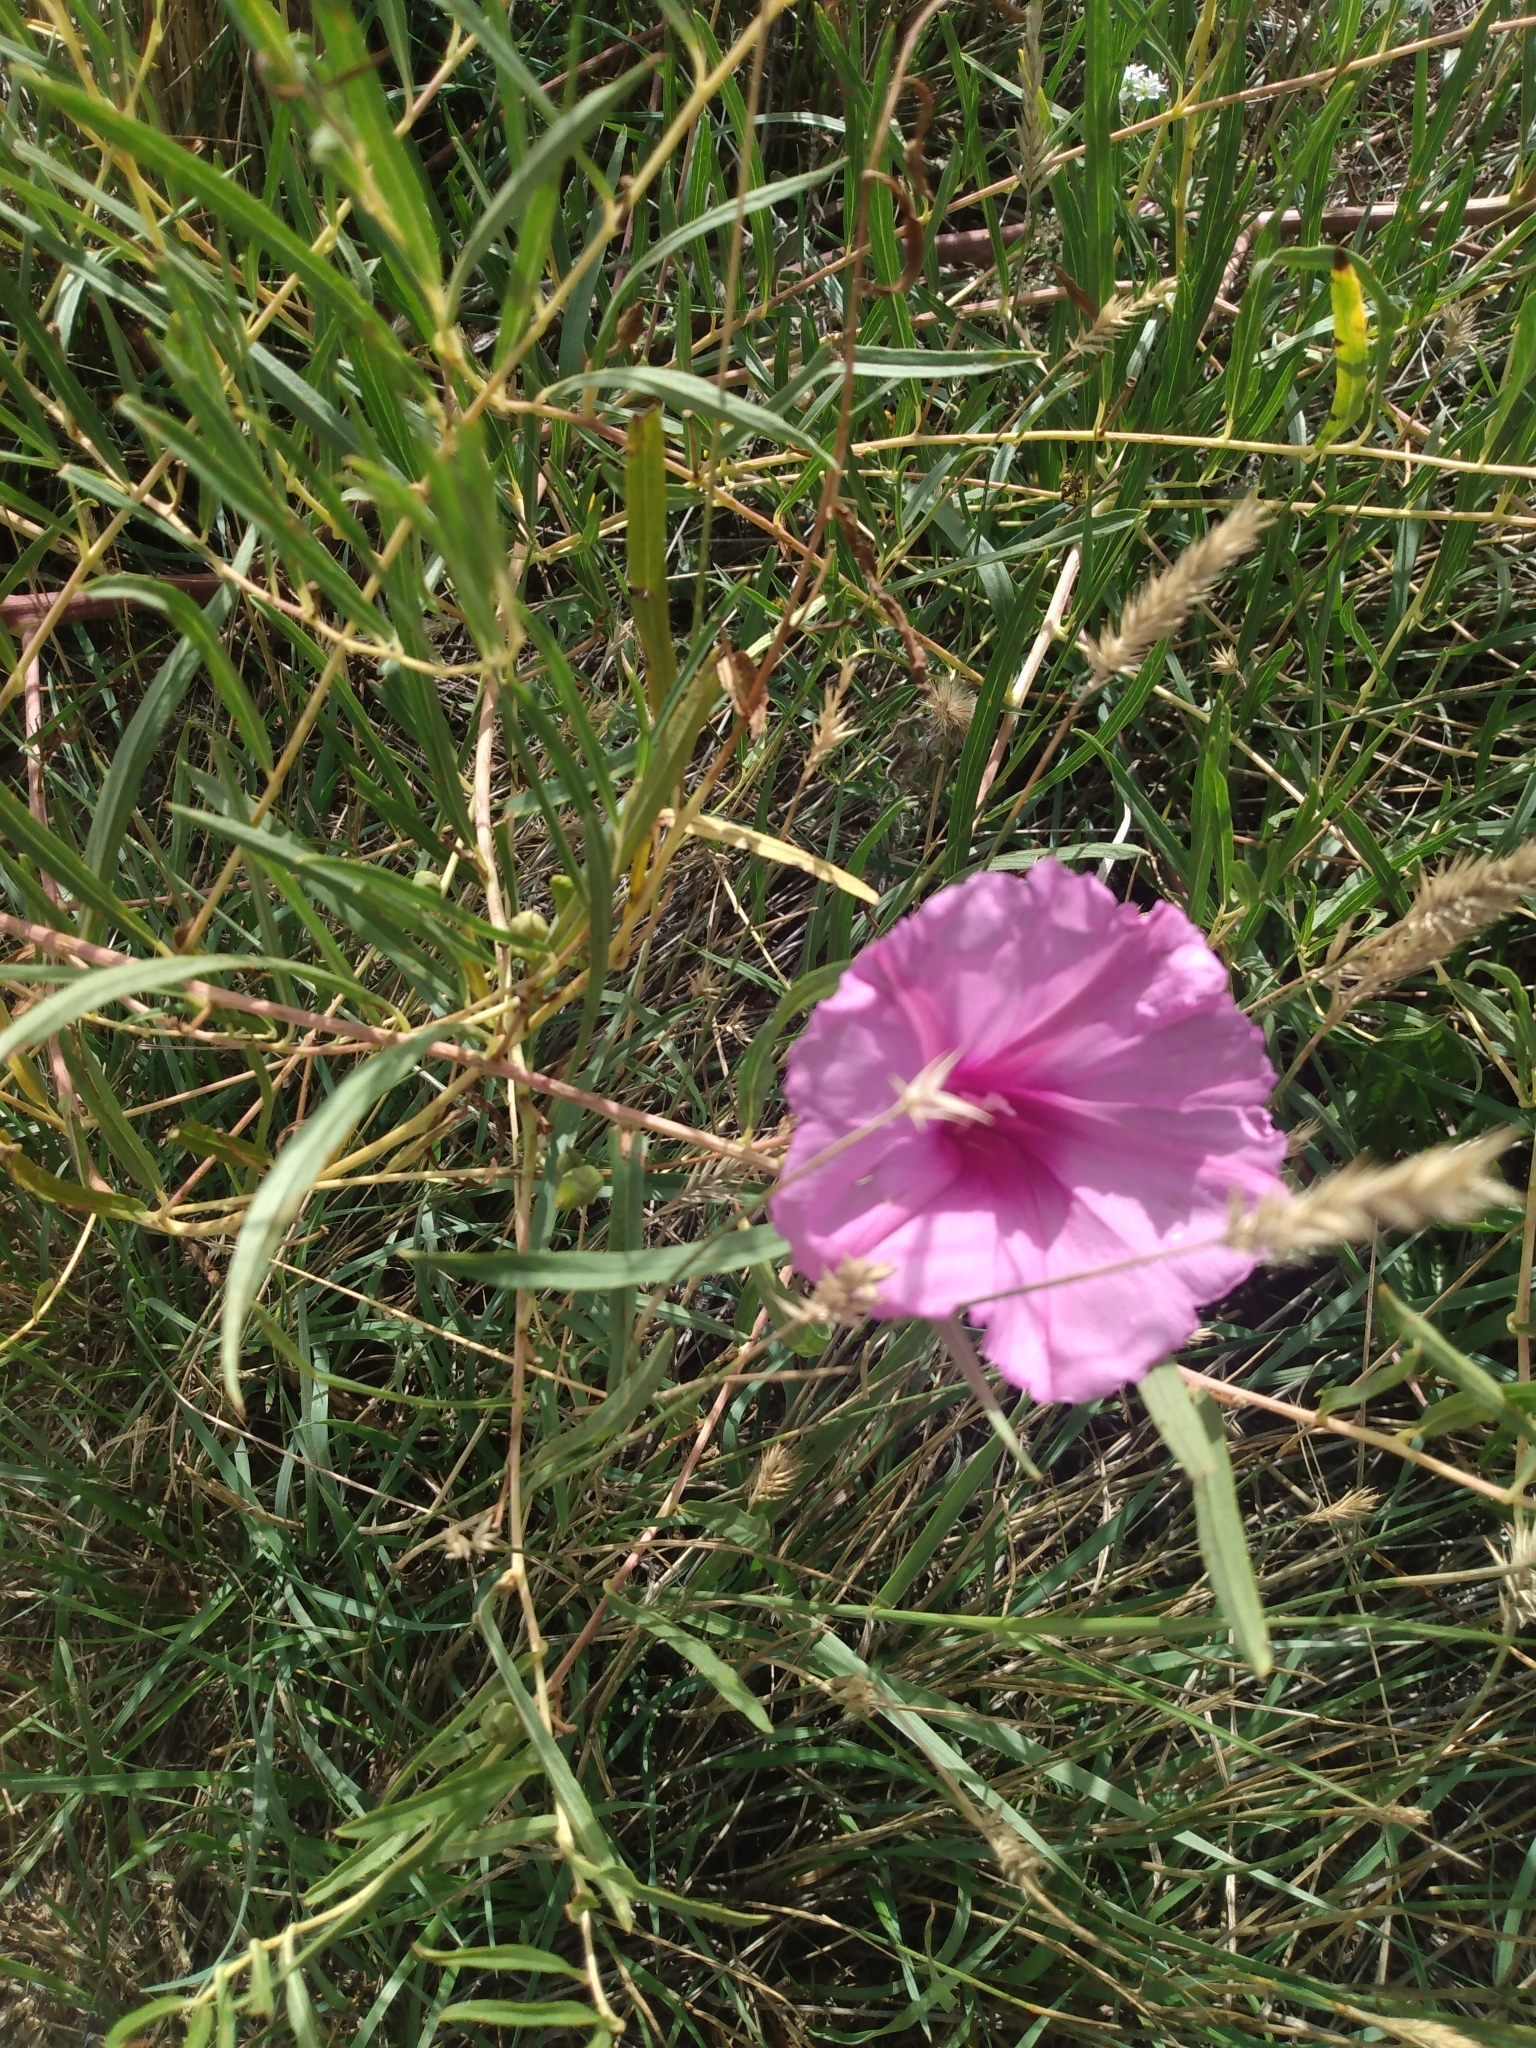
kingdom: Plantae
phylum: Tracheophyta
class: Magnoliopsida
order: Solanales
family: Convolvulaceae
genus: Ipomoea
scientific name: Ipomoea leptophylla
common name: Bush moonflower
